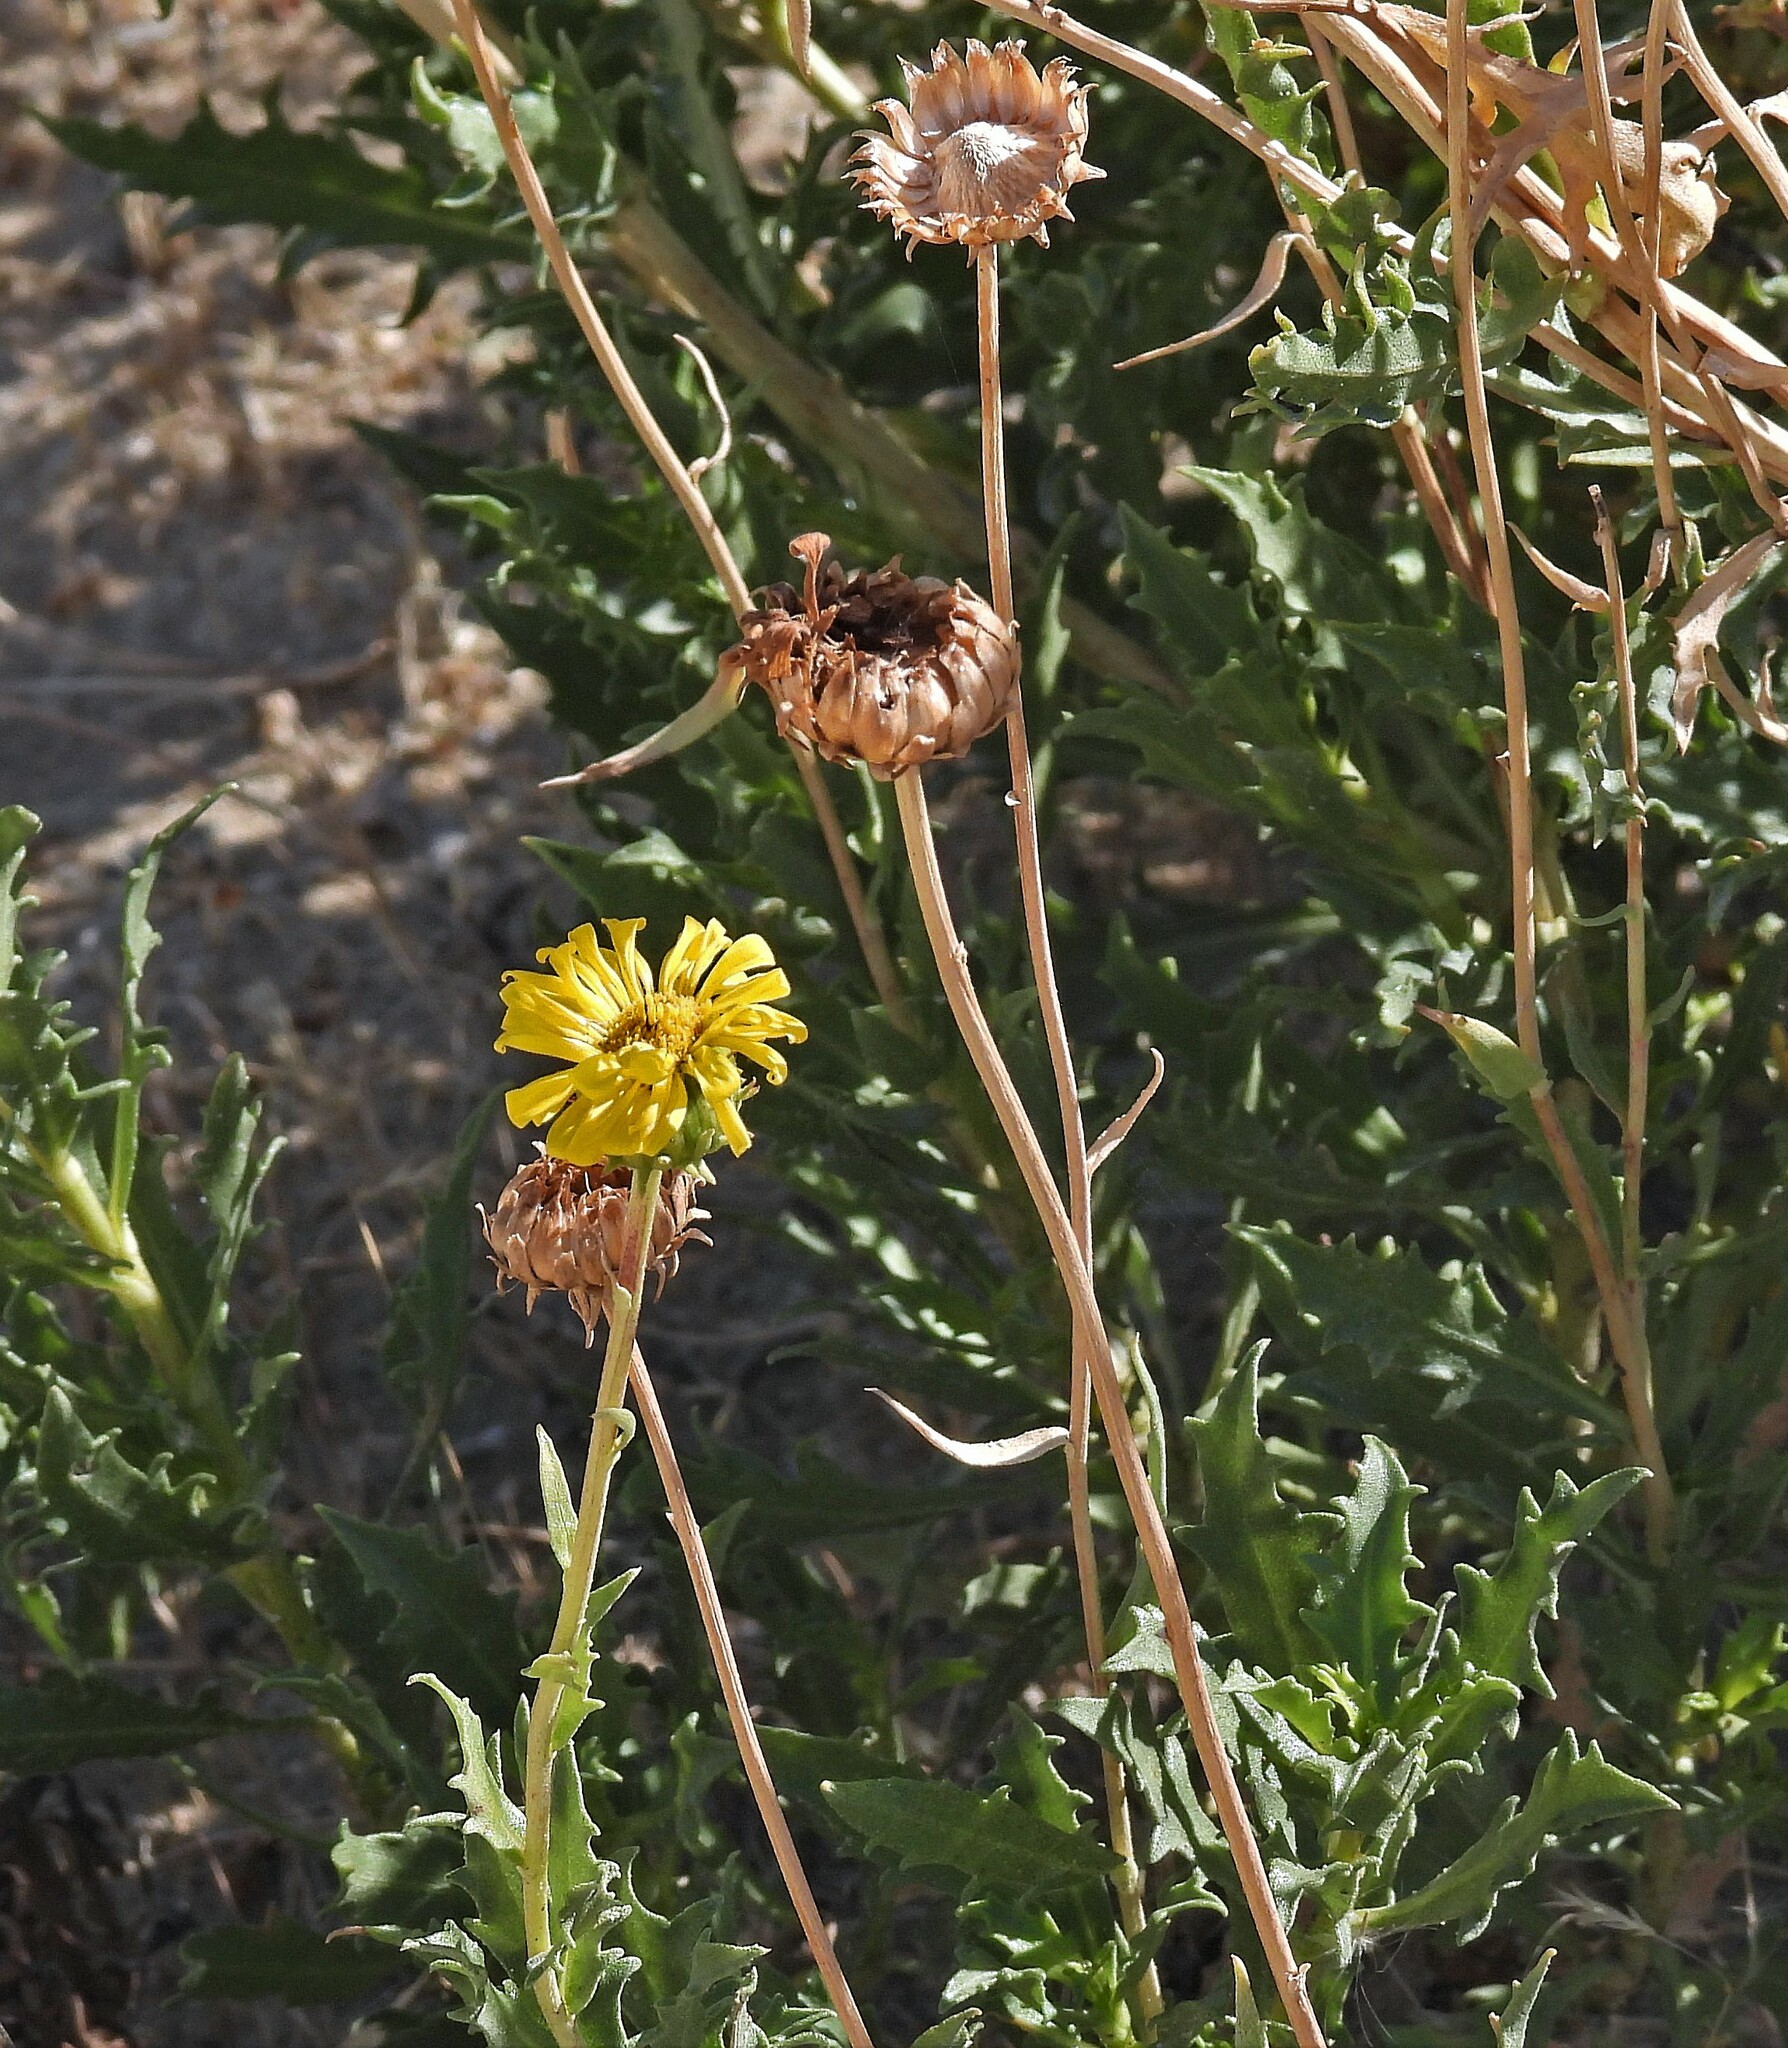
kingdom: Plantae
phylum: Tracheophyta
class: Magnoliopsida
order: Asterales
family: Asteraceae
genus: Grindelia
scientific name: Grindelia chiloensis
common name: Shrubby gumweed
